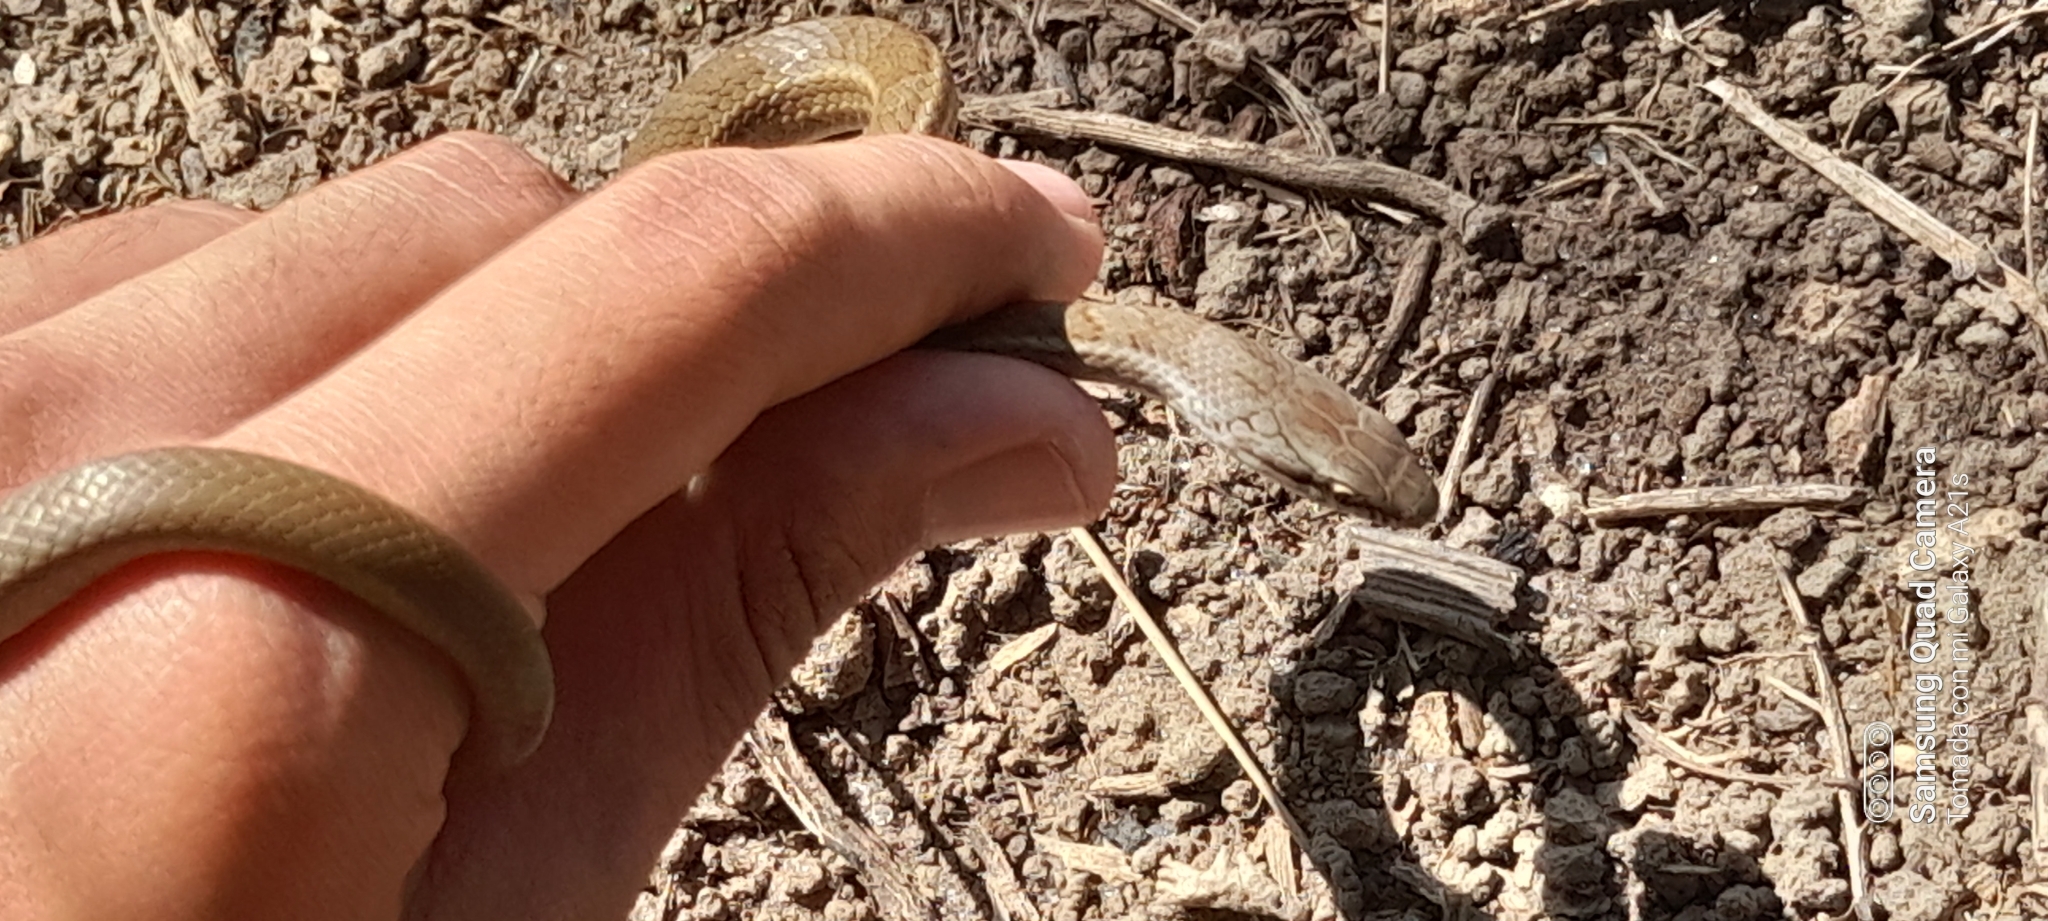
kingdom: Animalia
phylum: Chordata
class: Squamata
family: Colubridae
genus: Mastigodryas
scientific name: Mastigodryas alternatus
